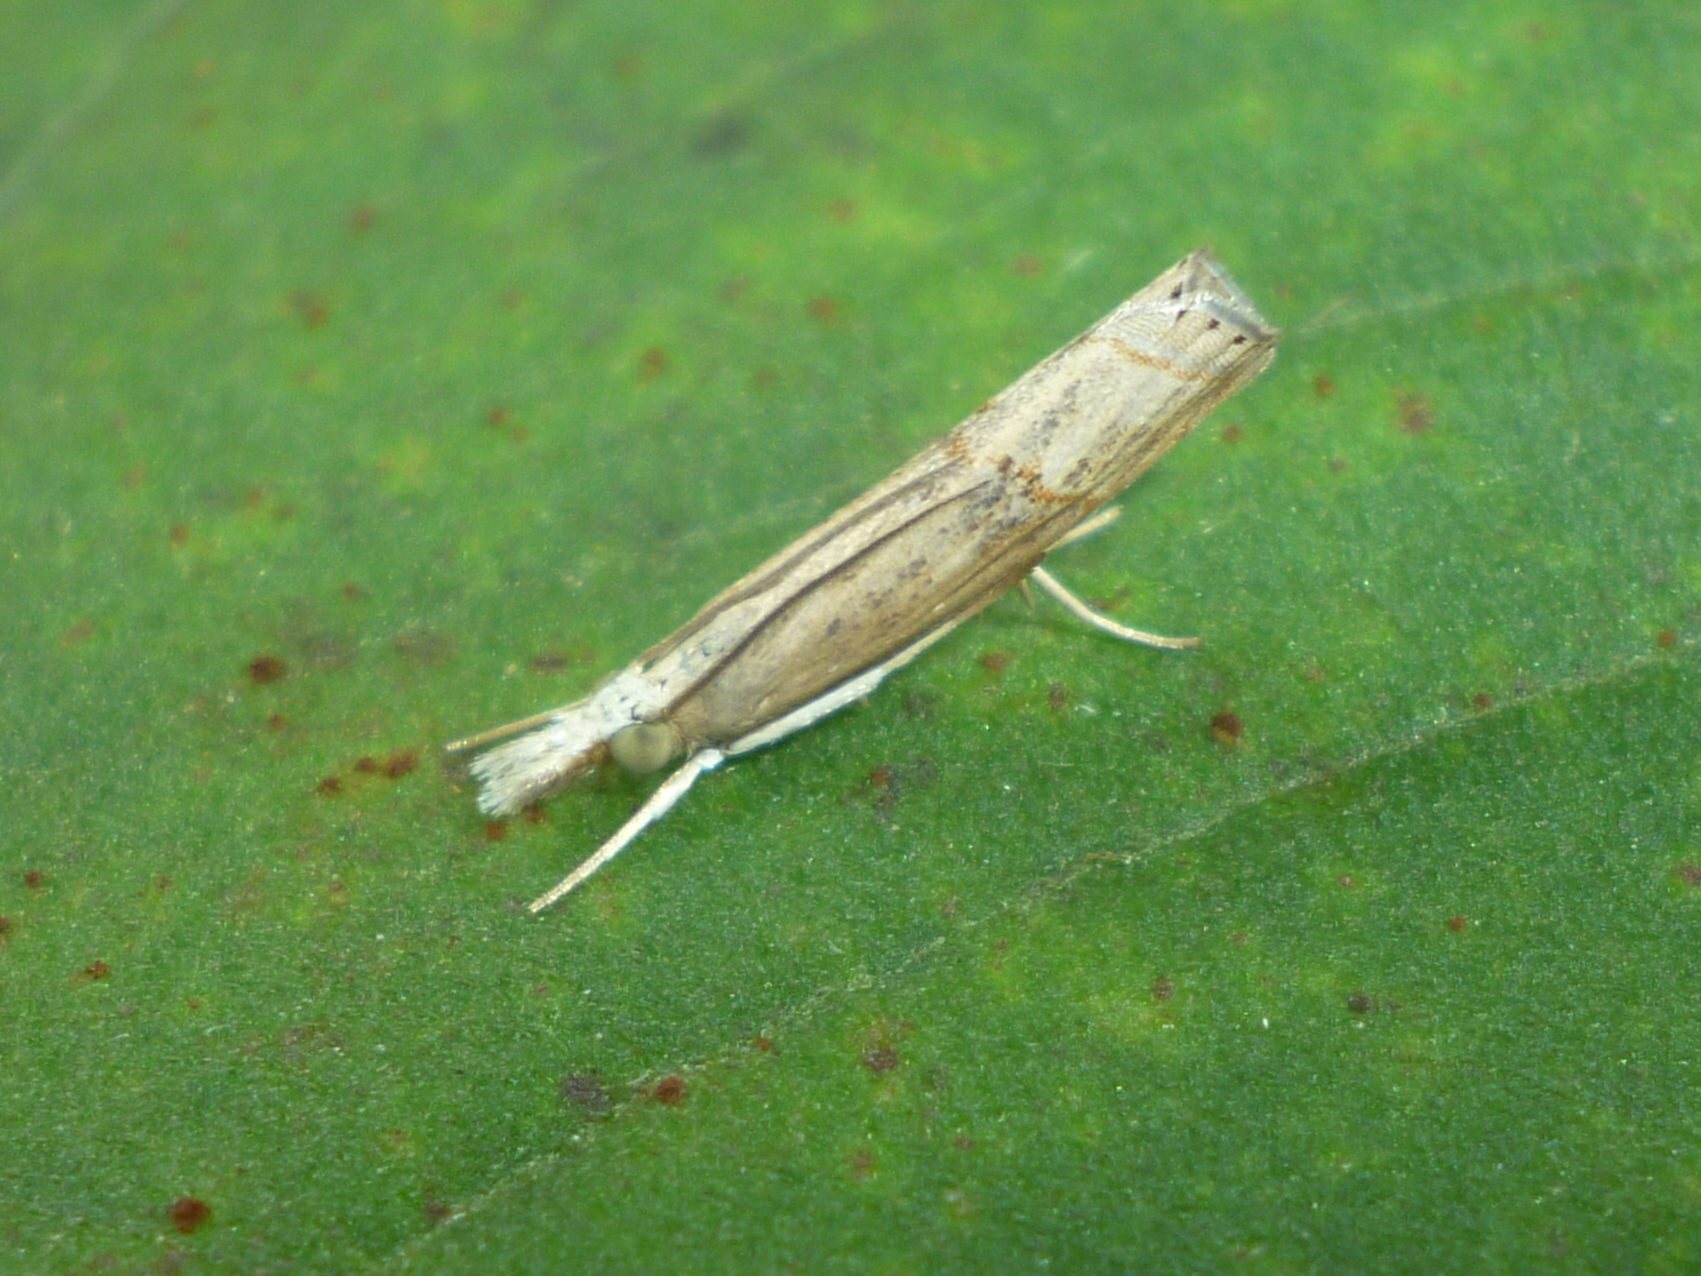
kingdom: Animalia
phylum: Arthropoda
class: Insecta
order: Lepidoptera
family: Crambidae
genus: Parapediasia
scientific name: Parapediasia teterellus
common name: Bluegrass webworm moth
